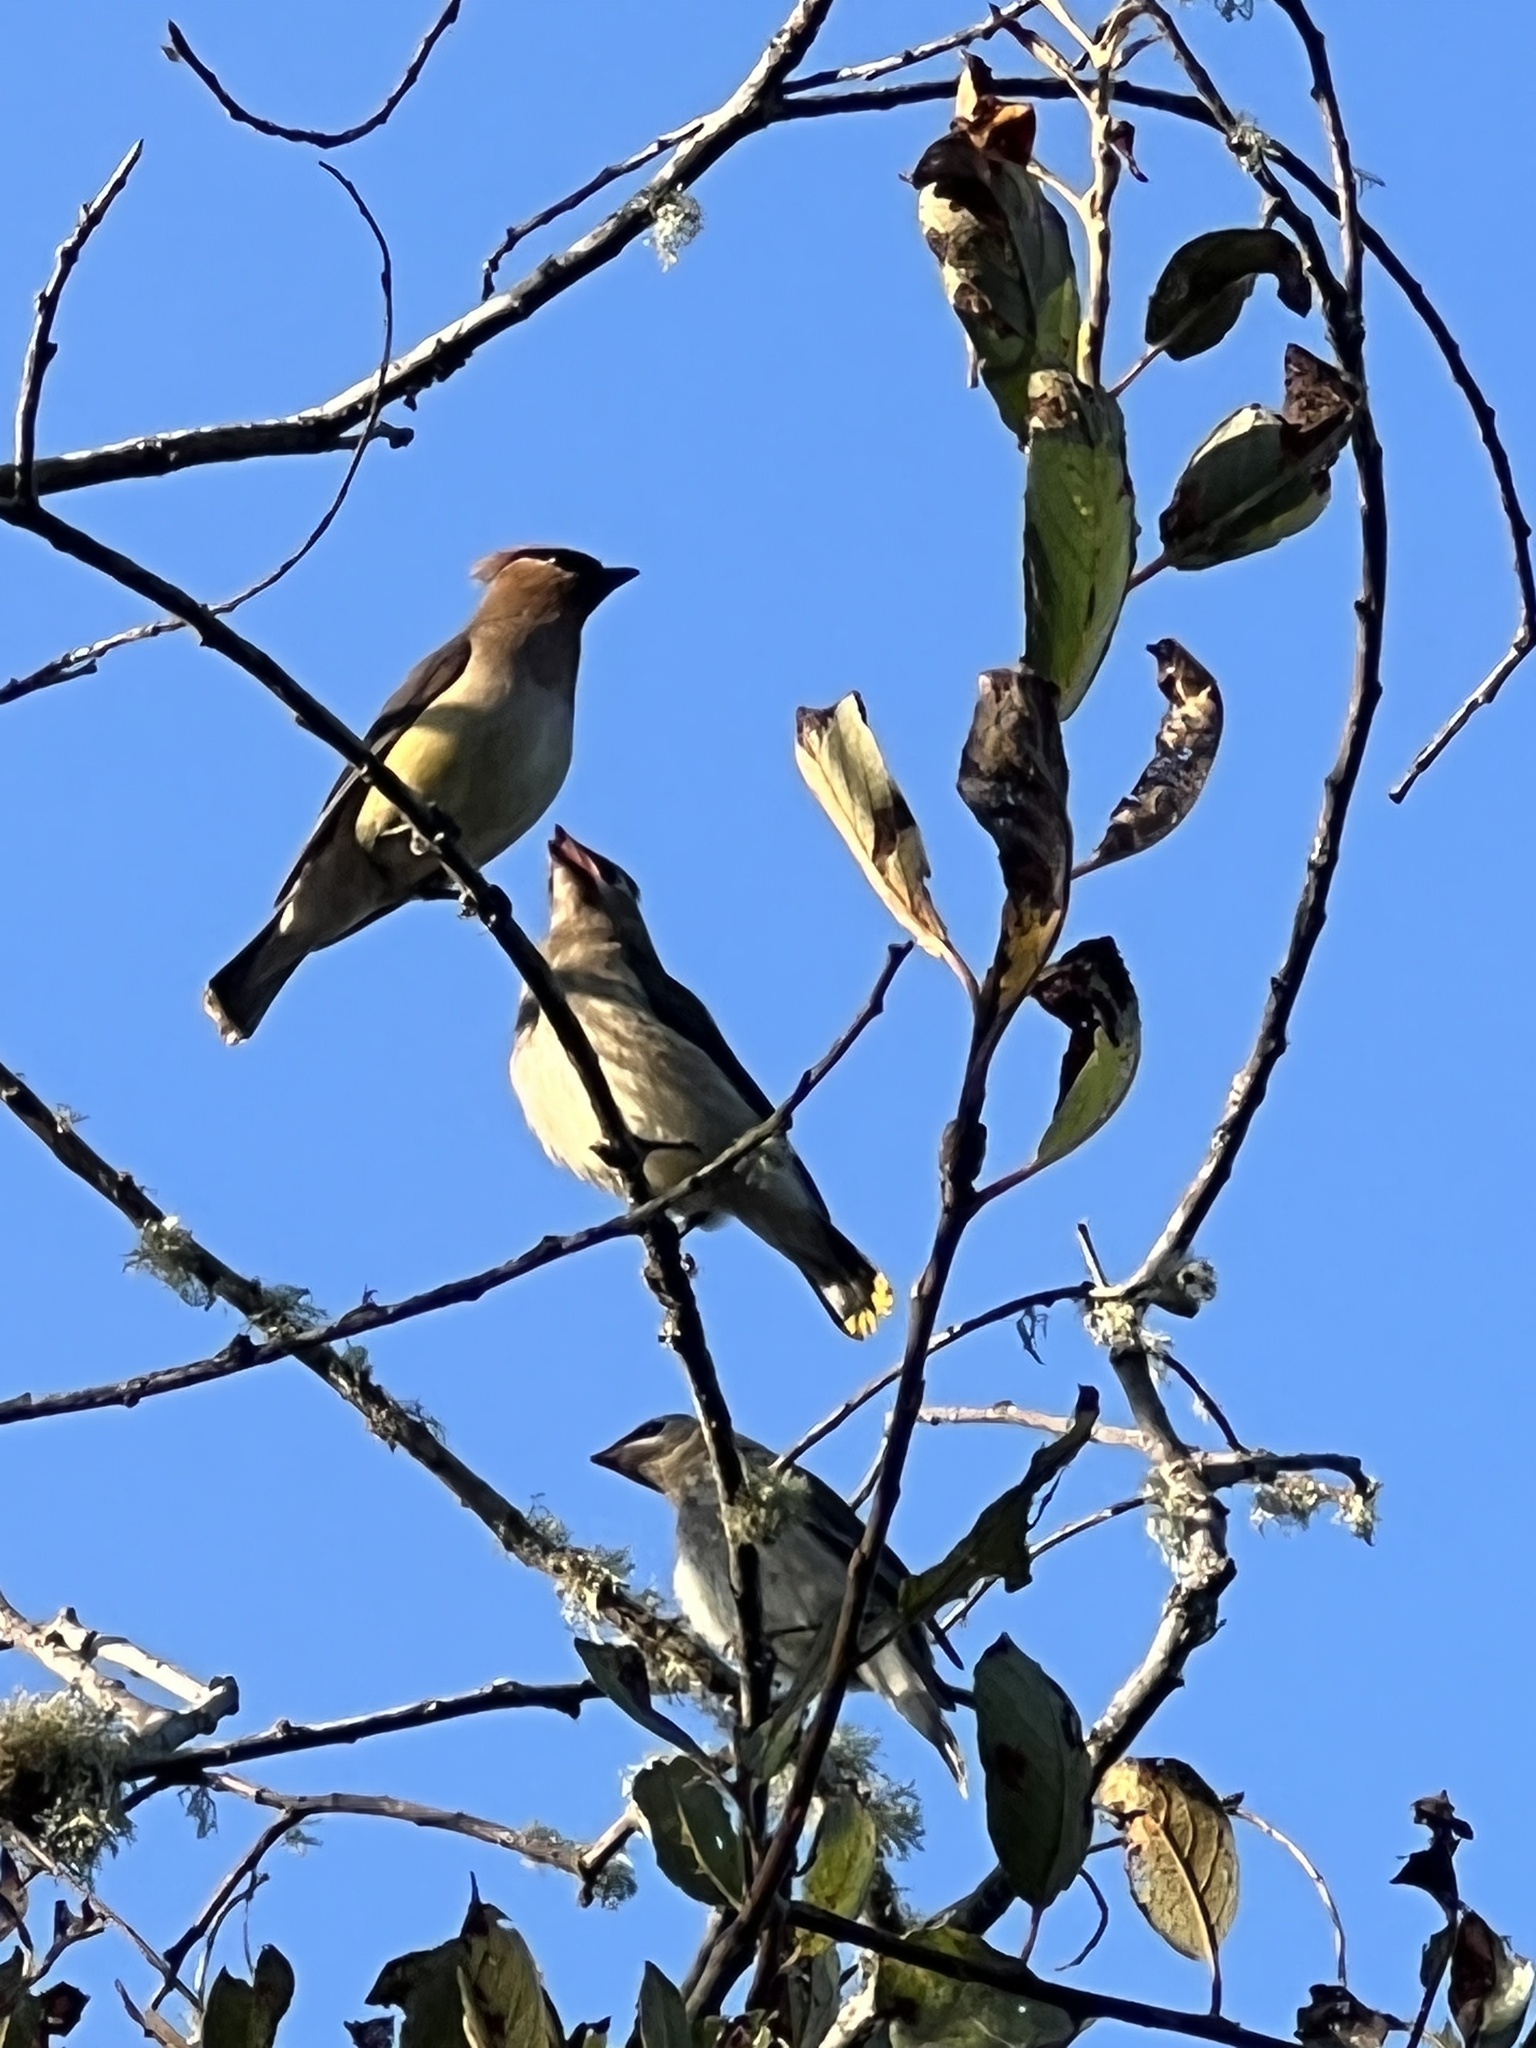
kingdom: Animalia
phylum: Chordata
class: Aves
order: Passeriformes
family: Bombycillidae
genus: Bombycilla
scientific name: Bombycilla cedrorum
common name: Cedar waxwing
